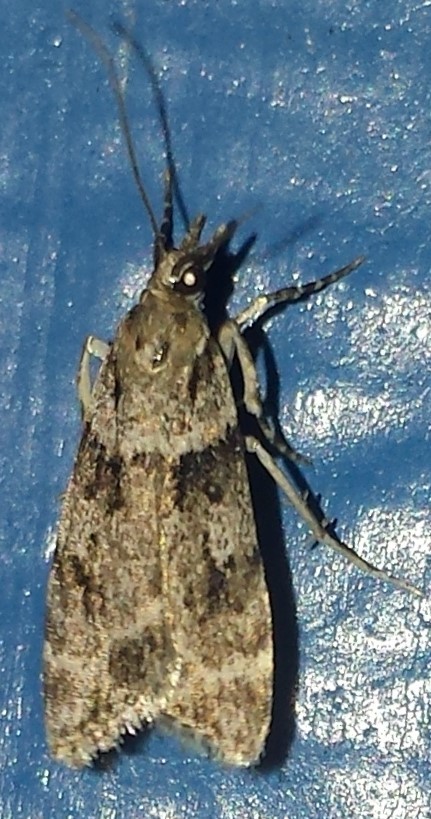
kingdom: Animalia
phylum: Arthropoda
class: Insecta
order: Lepidoptera
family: Crambidae
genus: Scoparia
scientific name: Scoparia biplagialis
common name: Double-striped scoparia moth
